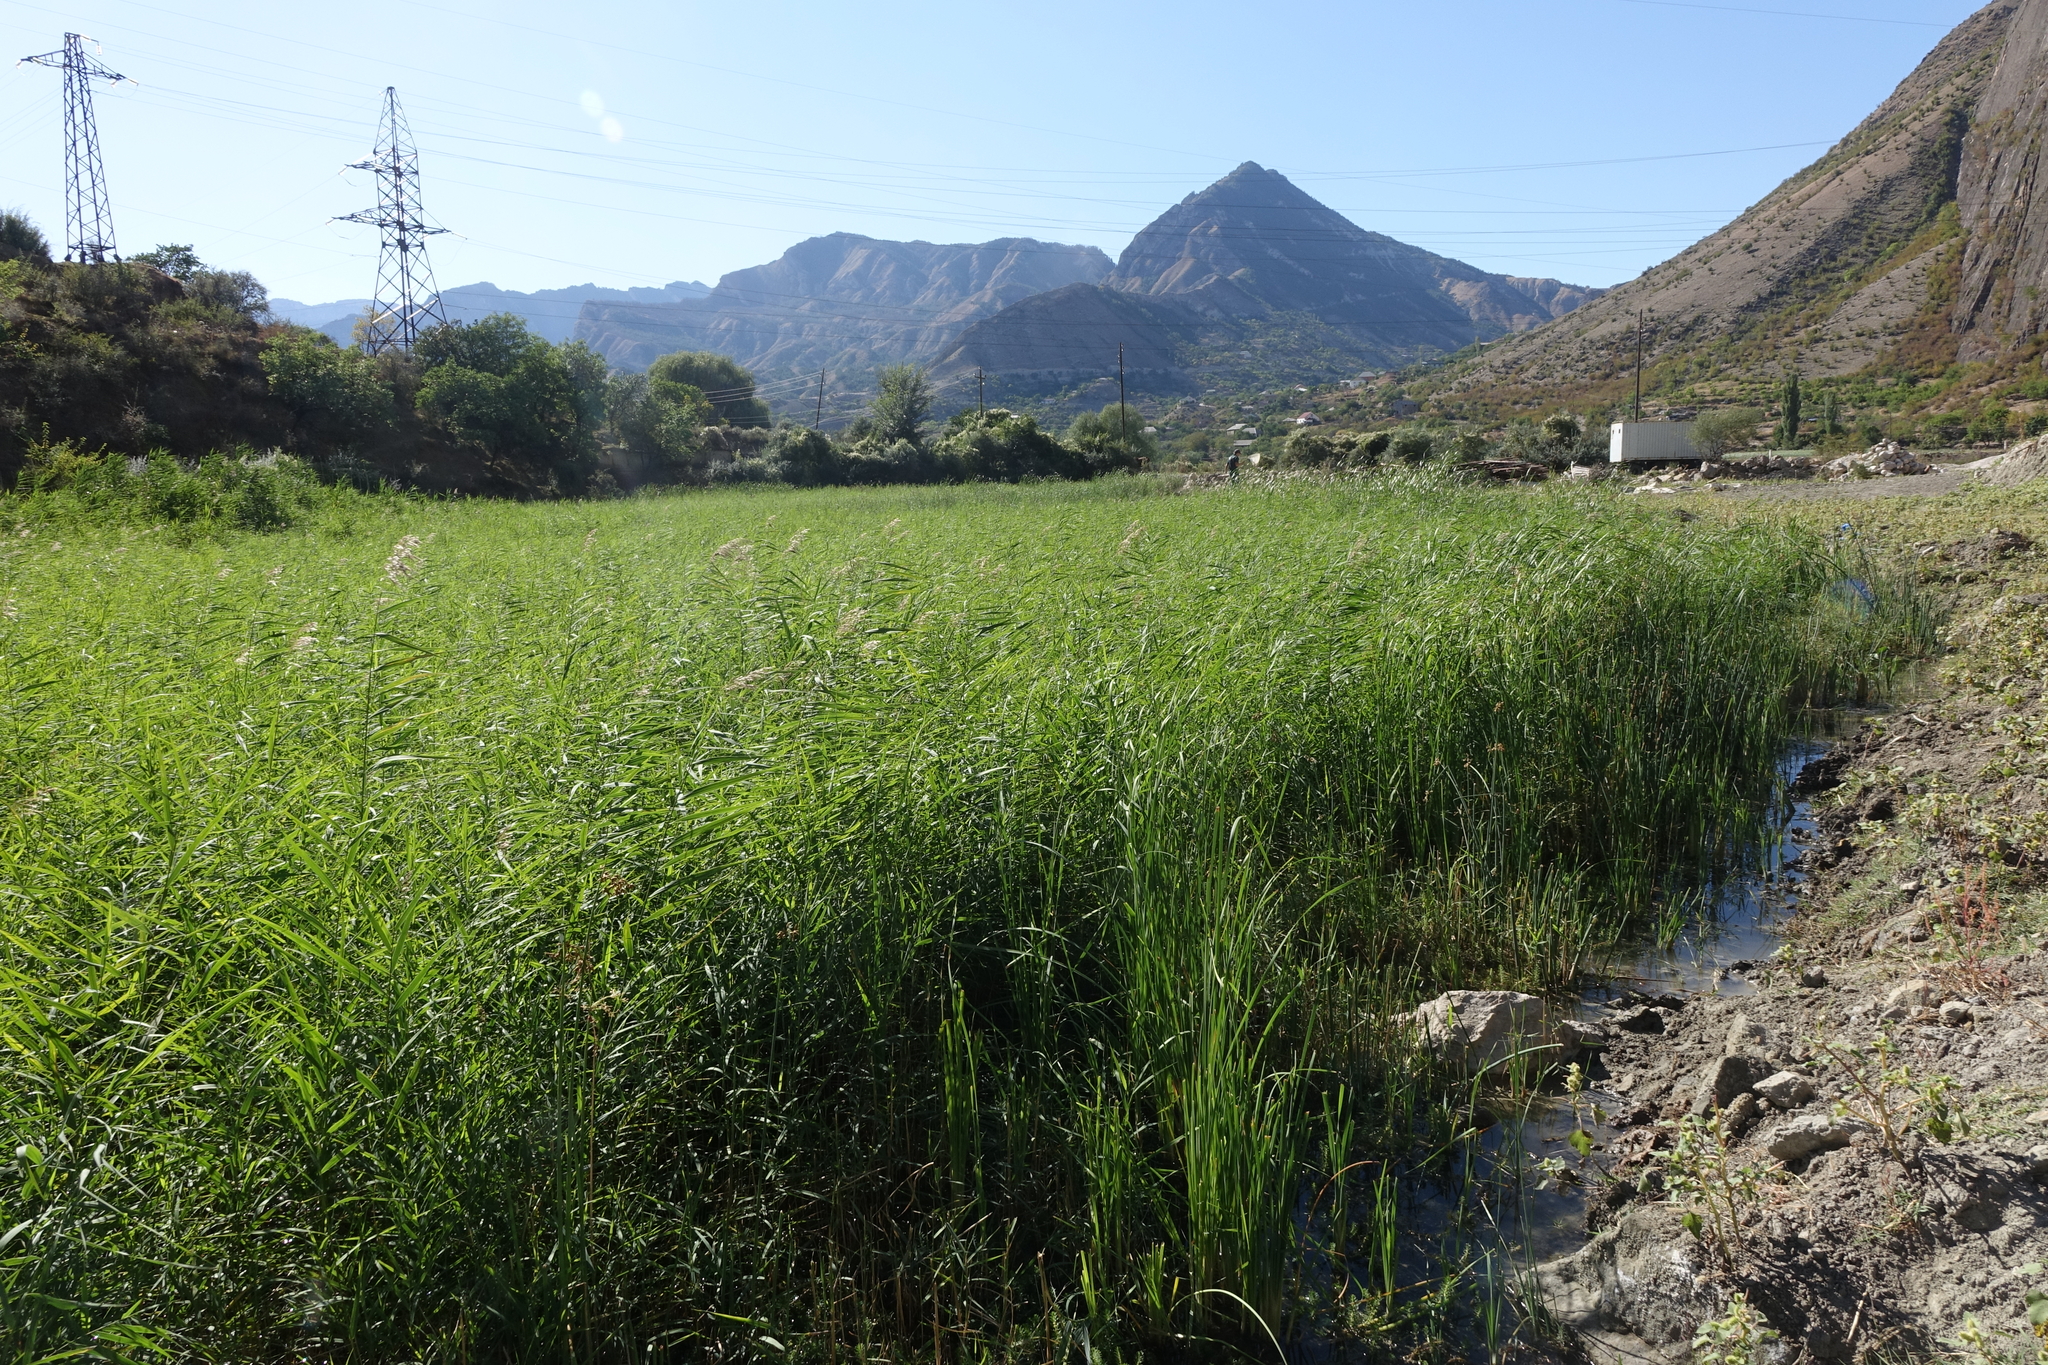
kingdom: Plantae
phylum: Tracheophyta
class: Liliopsida
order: Poales
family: Poaceae
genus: Phragmites
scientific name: Phragmites australis
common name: Common reed
